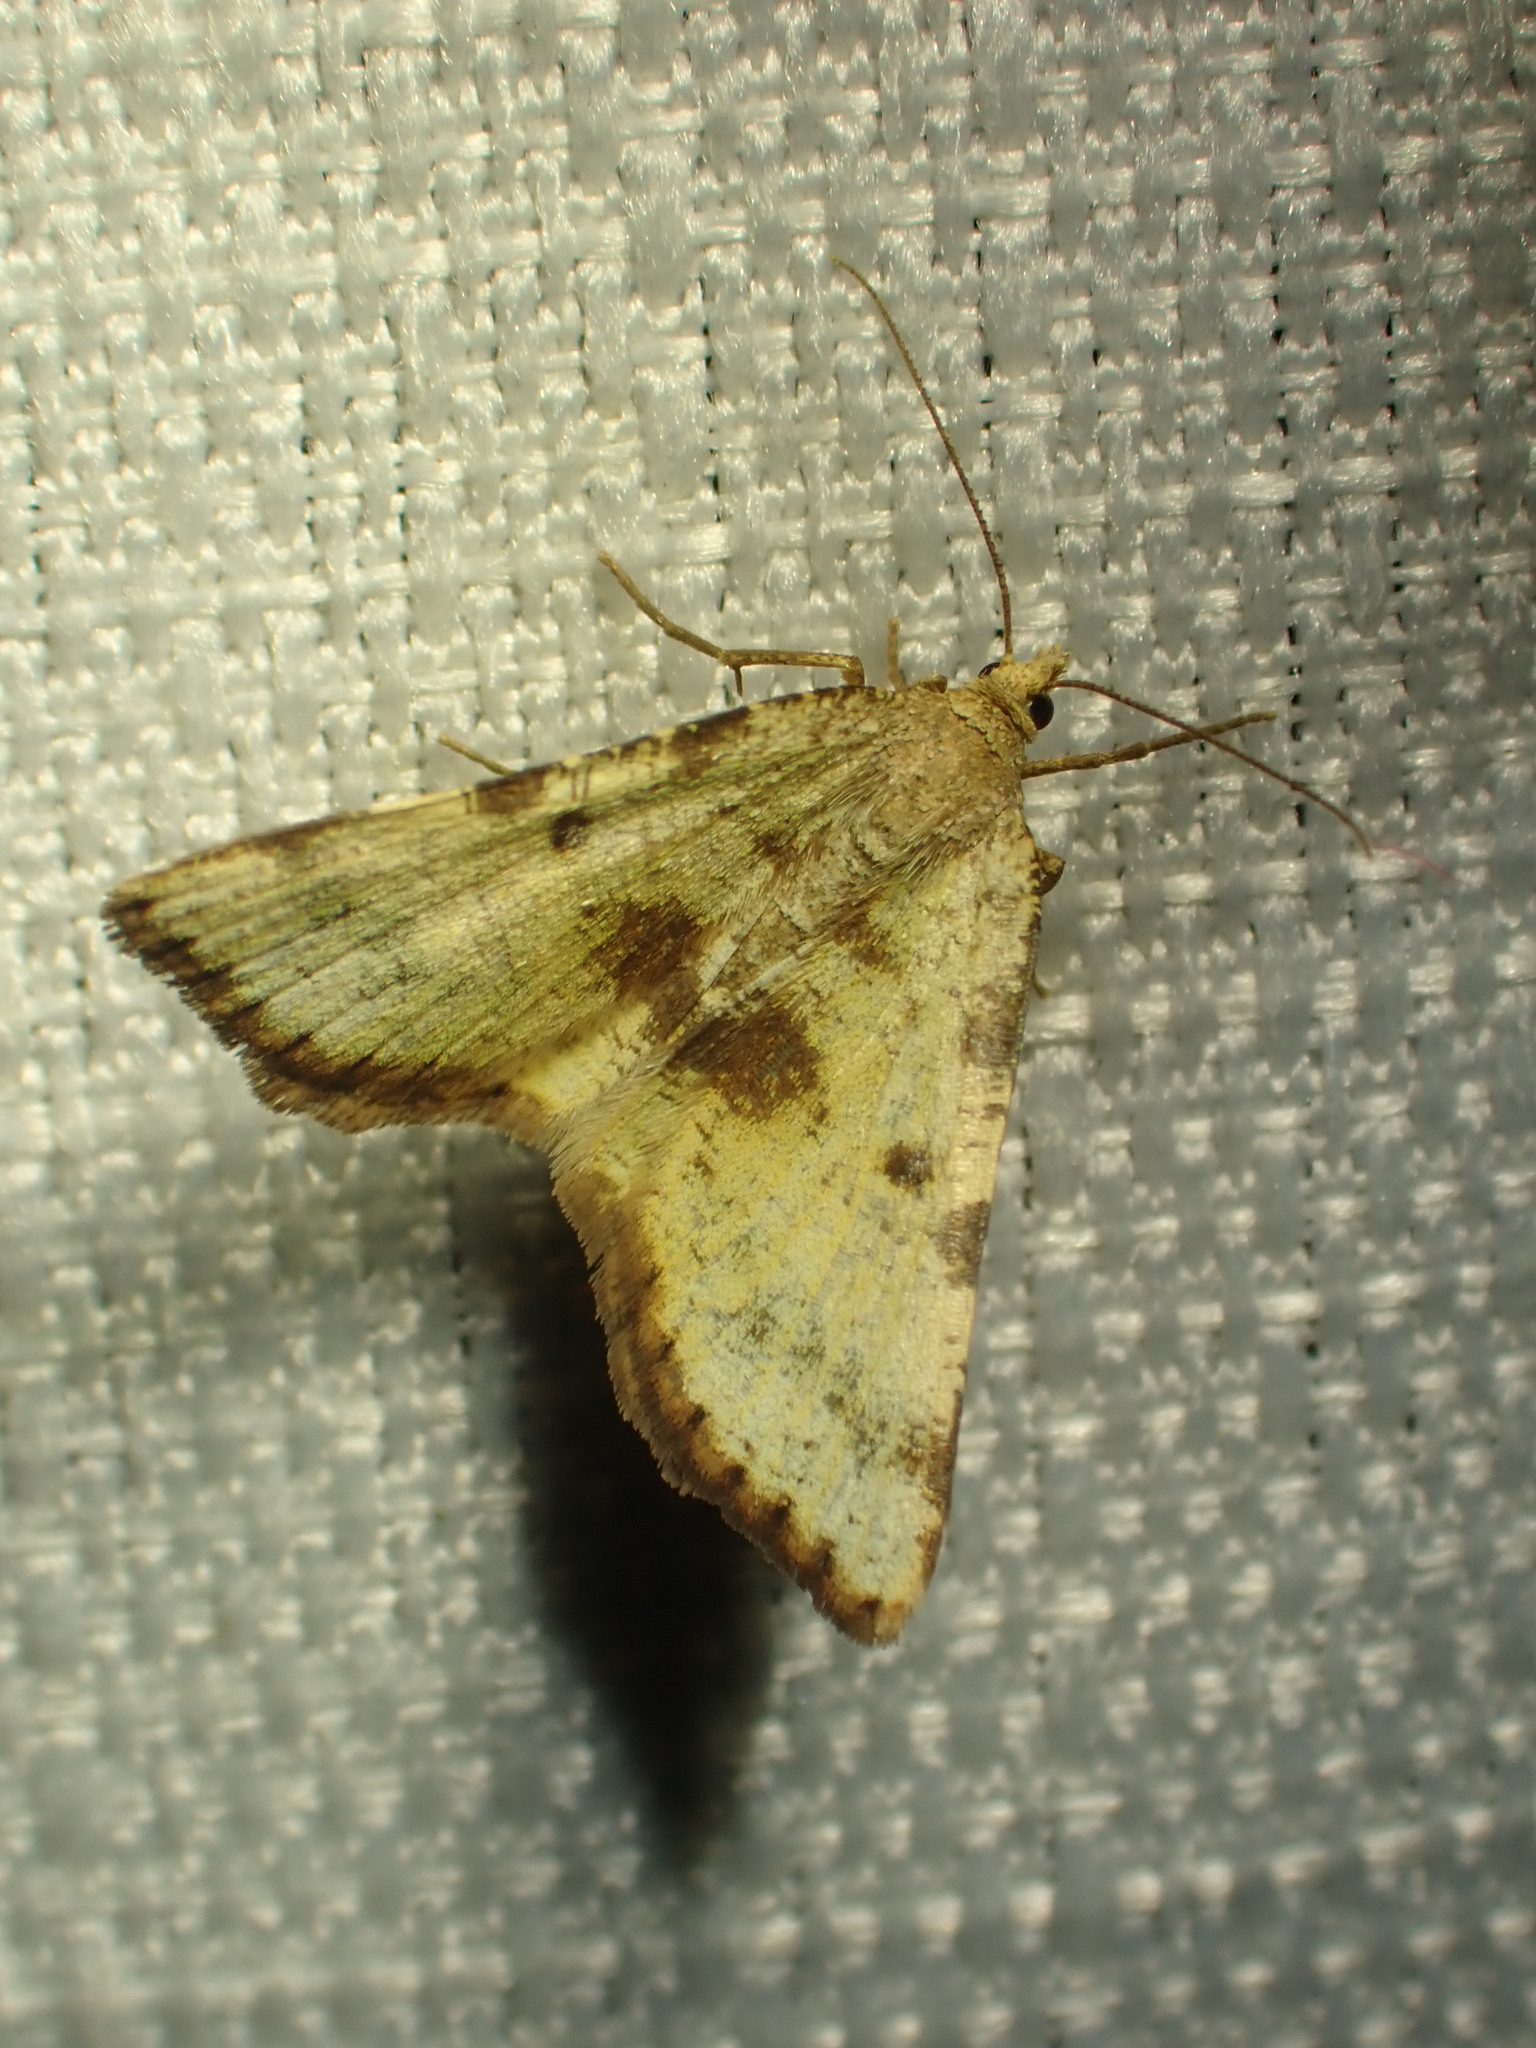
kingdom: Animalia
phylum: Arthropoda
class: Insecta
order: Lepidoptera
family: Geometridae
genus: Macaria
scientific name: Macaria sulphurea
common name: Sulphur angle
